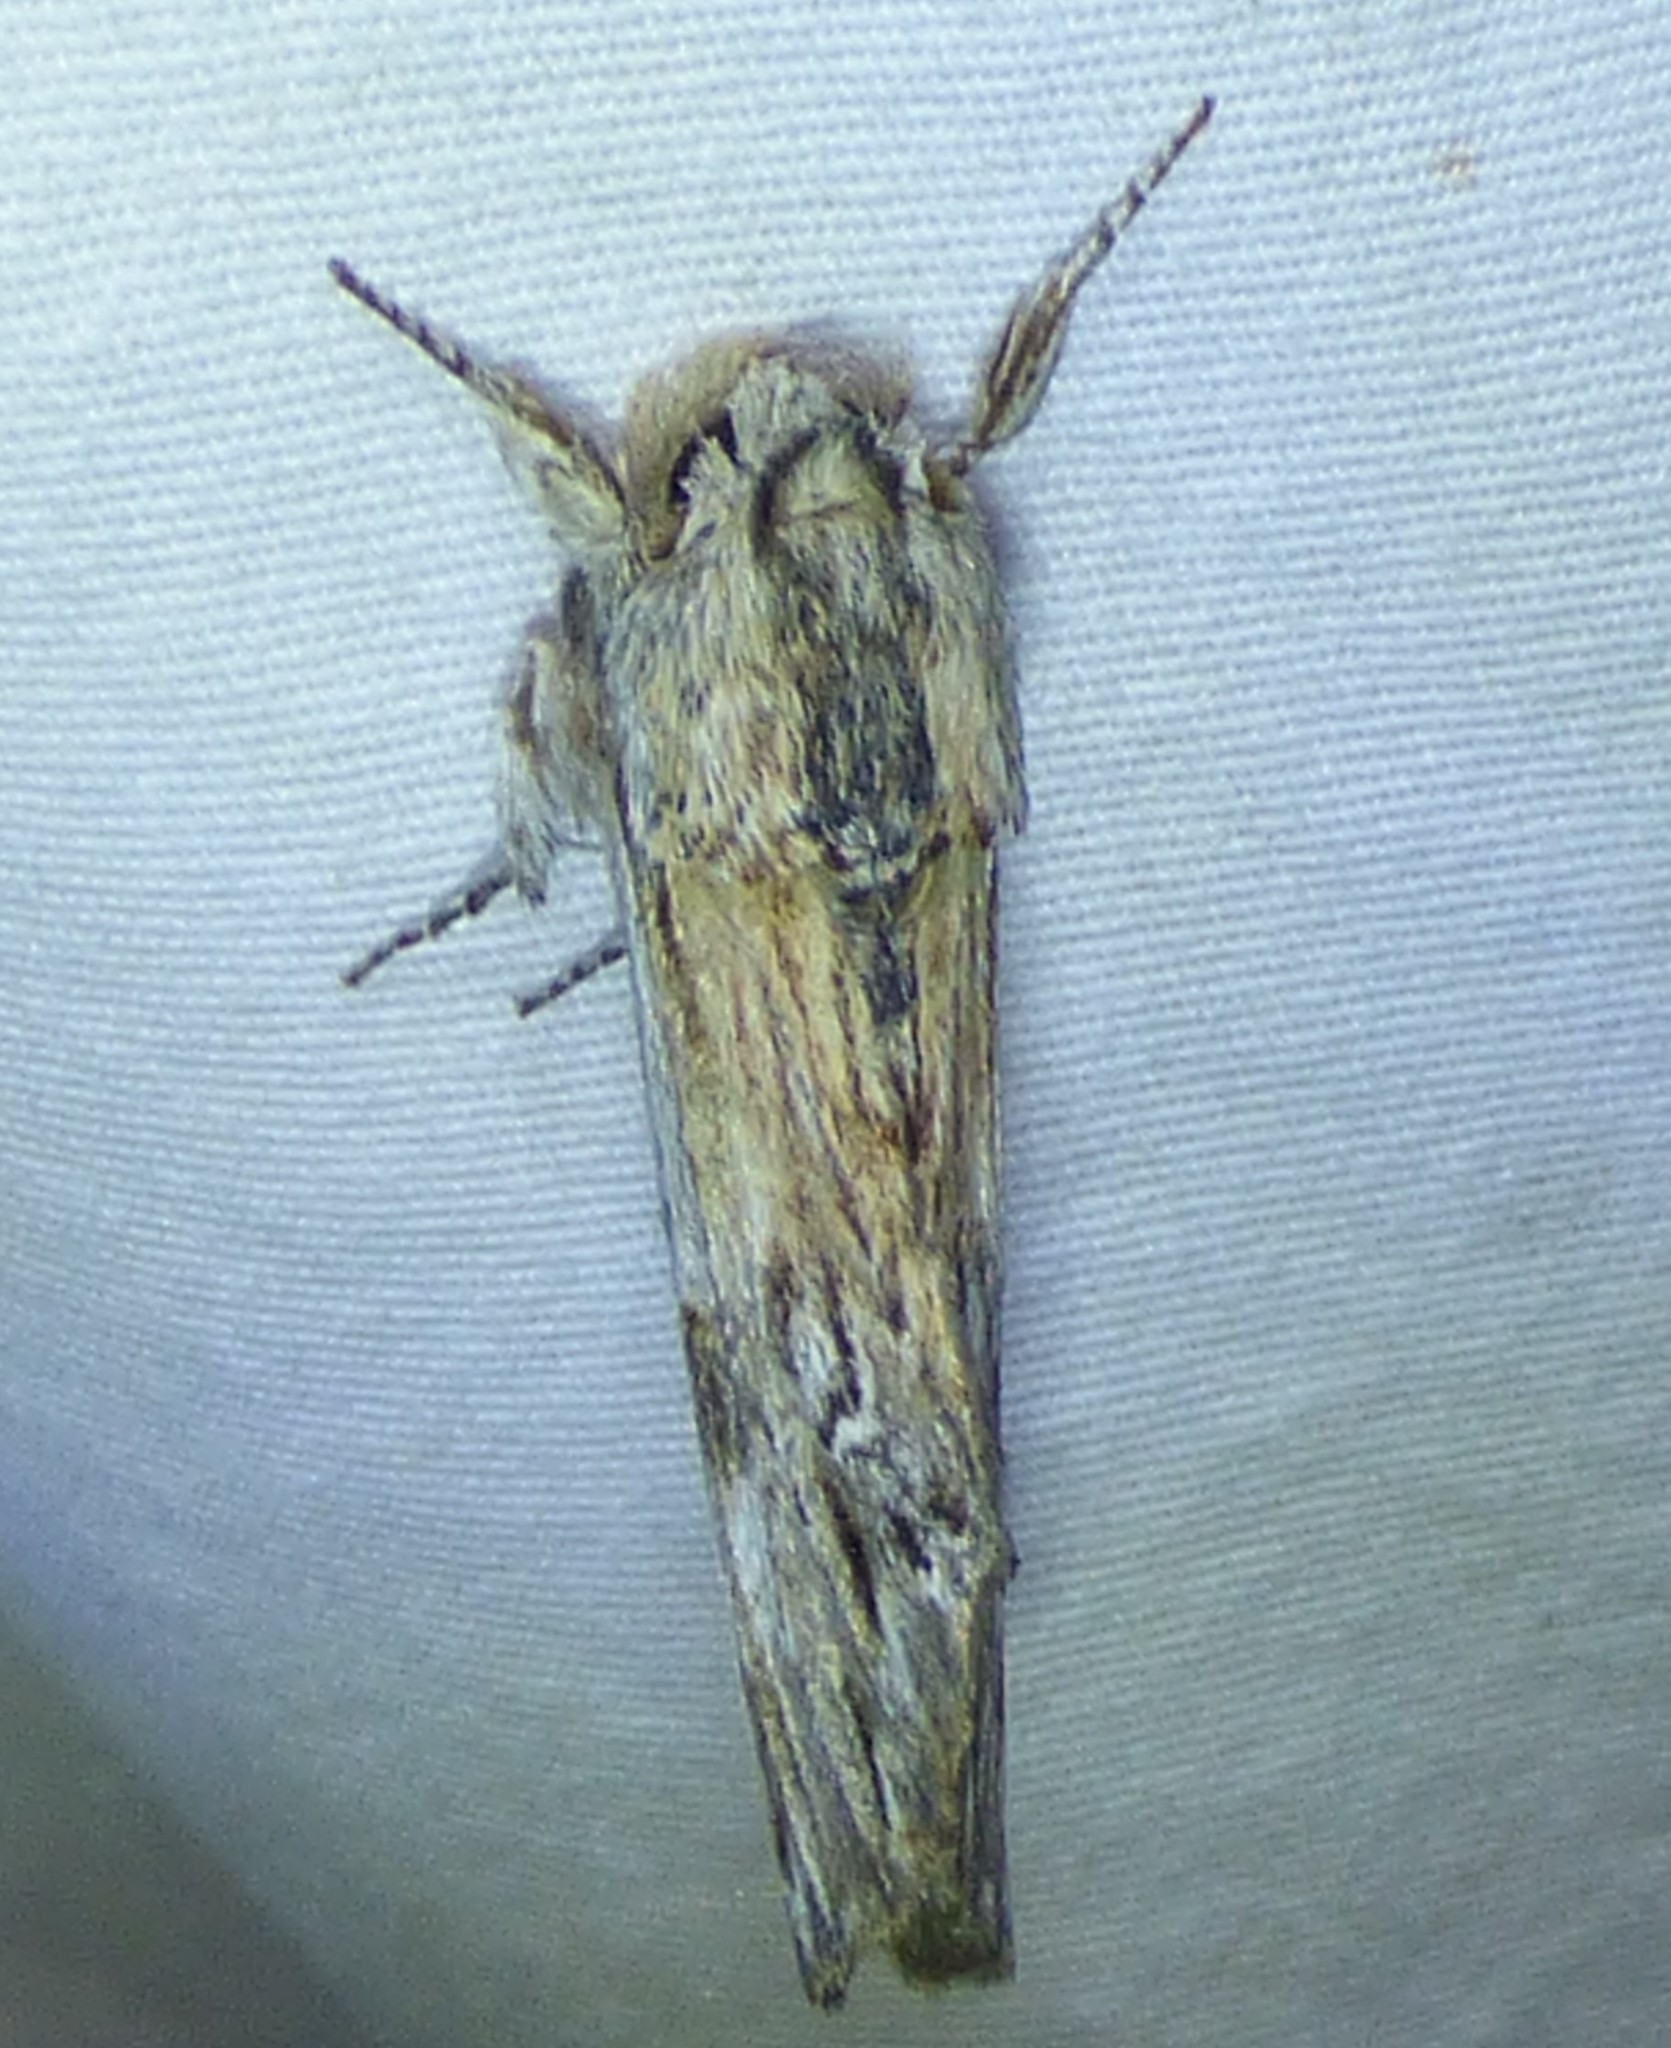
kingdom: Animalia
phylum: Arthropoda
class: Insecta
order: Lepidoptera
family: Notodontidae
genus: Oligocentria
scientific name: Oligocentria Ianassa lignicolor
